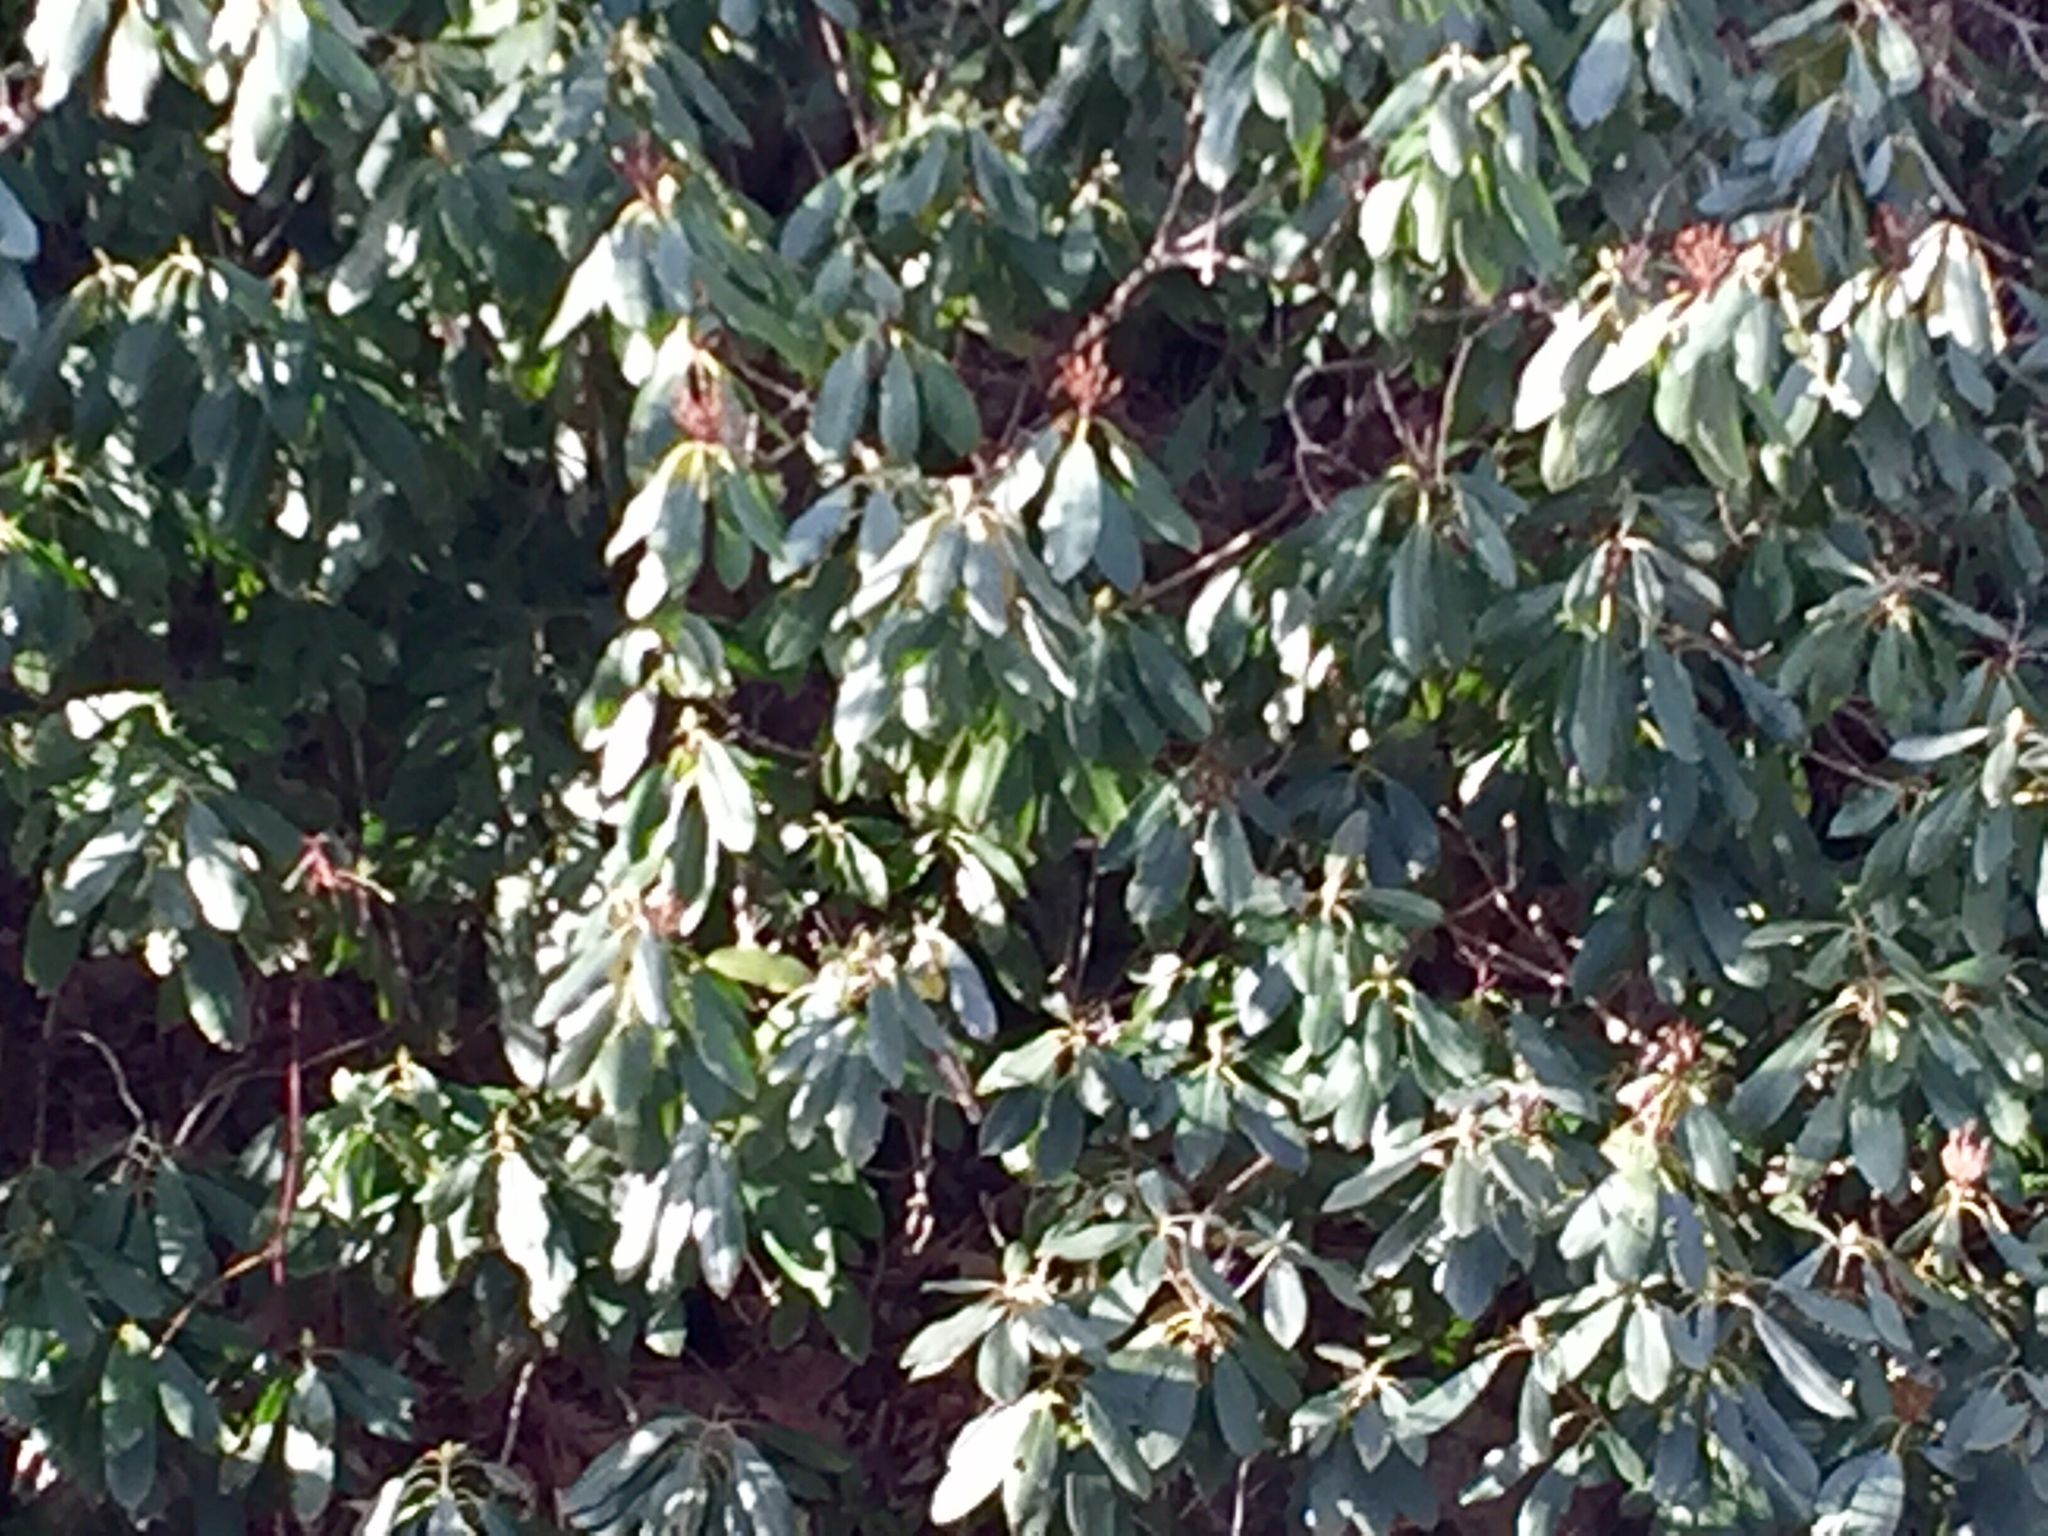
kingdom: Plantae
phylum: Tracheophyta
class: Magnoliopsida
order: Ericales
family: Ericaceae
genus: Rhododendron
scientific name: Rhododendron maximum
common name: Great rhododendron
